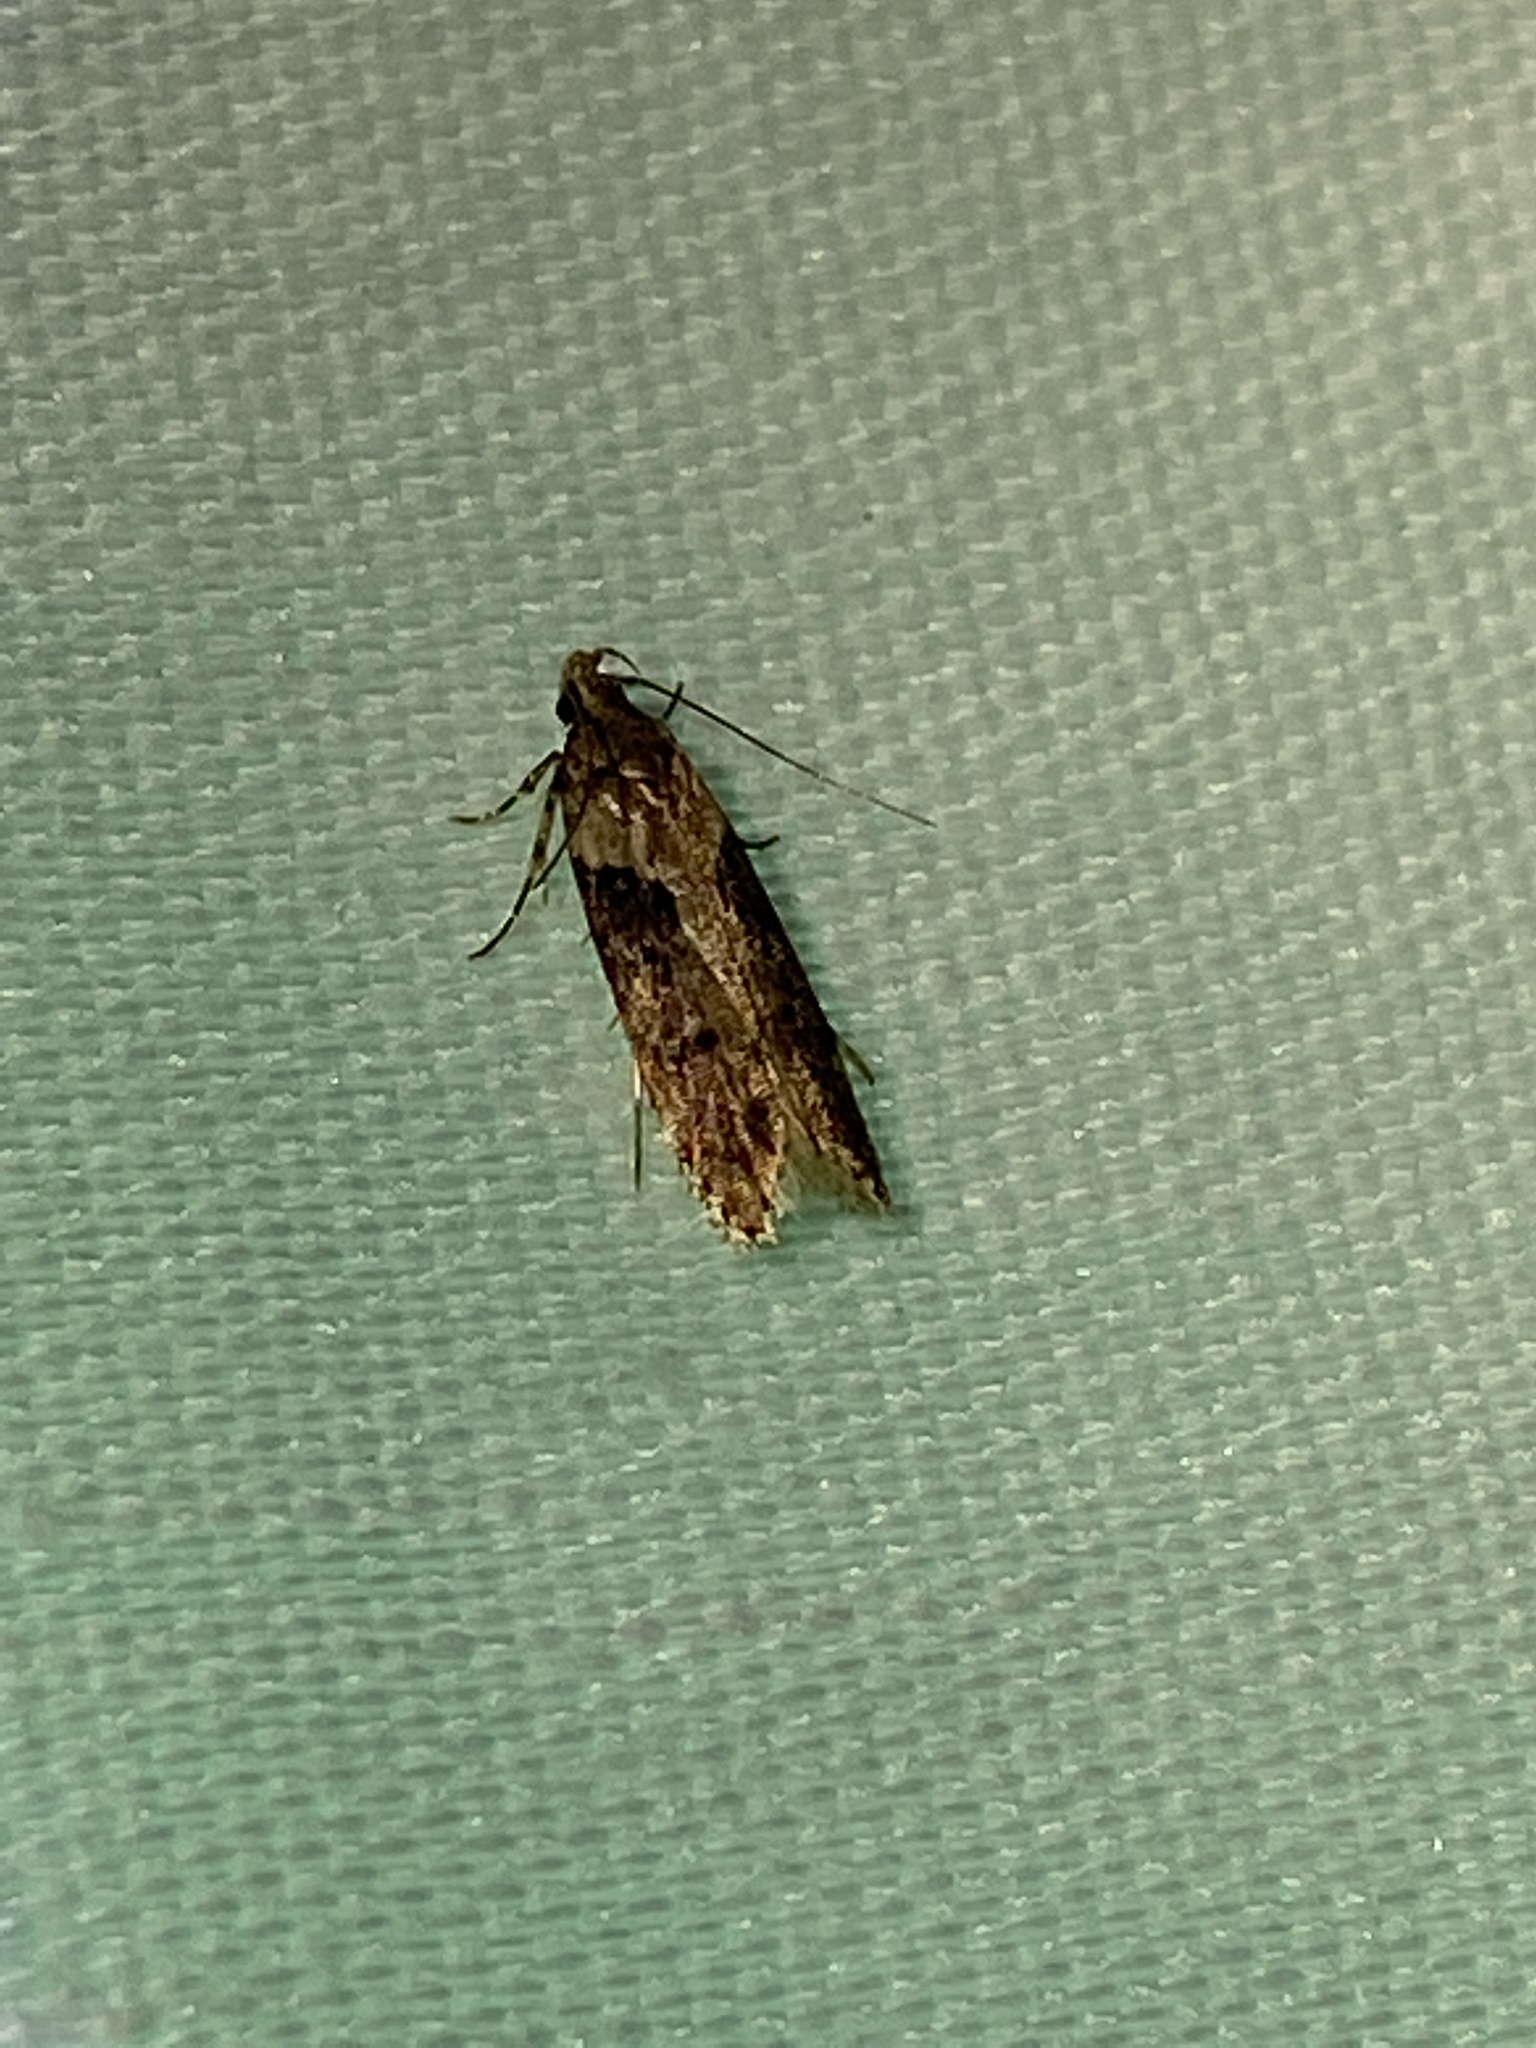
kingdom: Animalia
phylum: Arthropoda
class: Insecta
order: Lepidoptera
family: Gelechiidae
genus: Chionodes
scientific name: Chionodes mediofuscella
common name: Black-smudged chionodes moth
